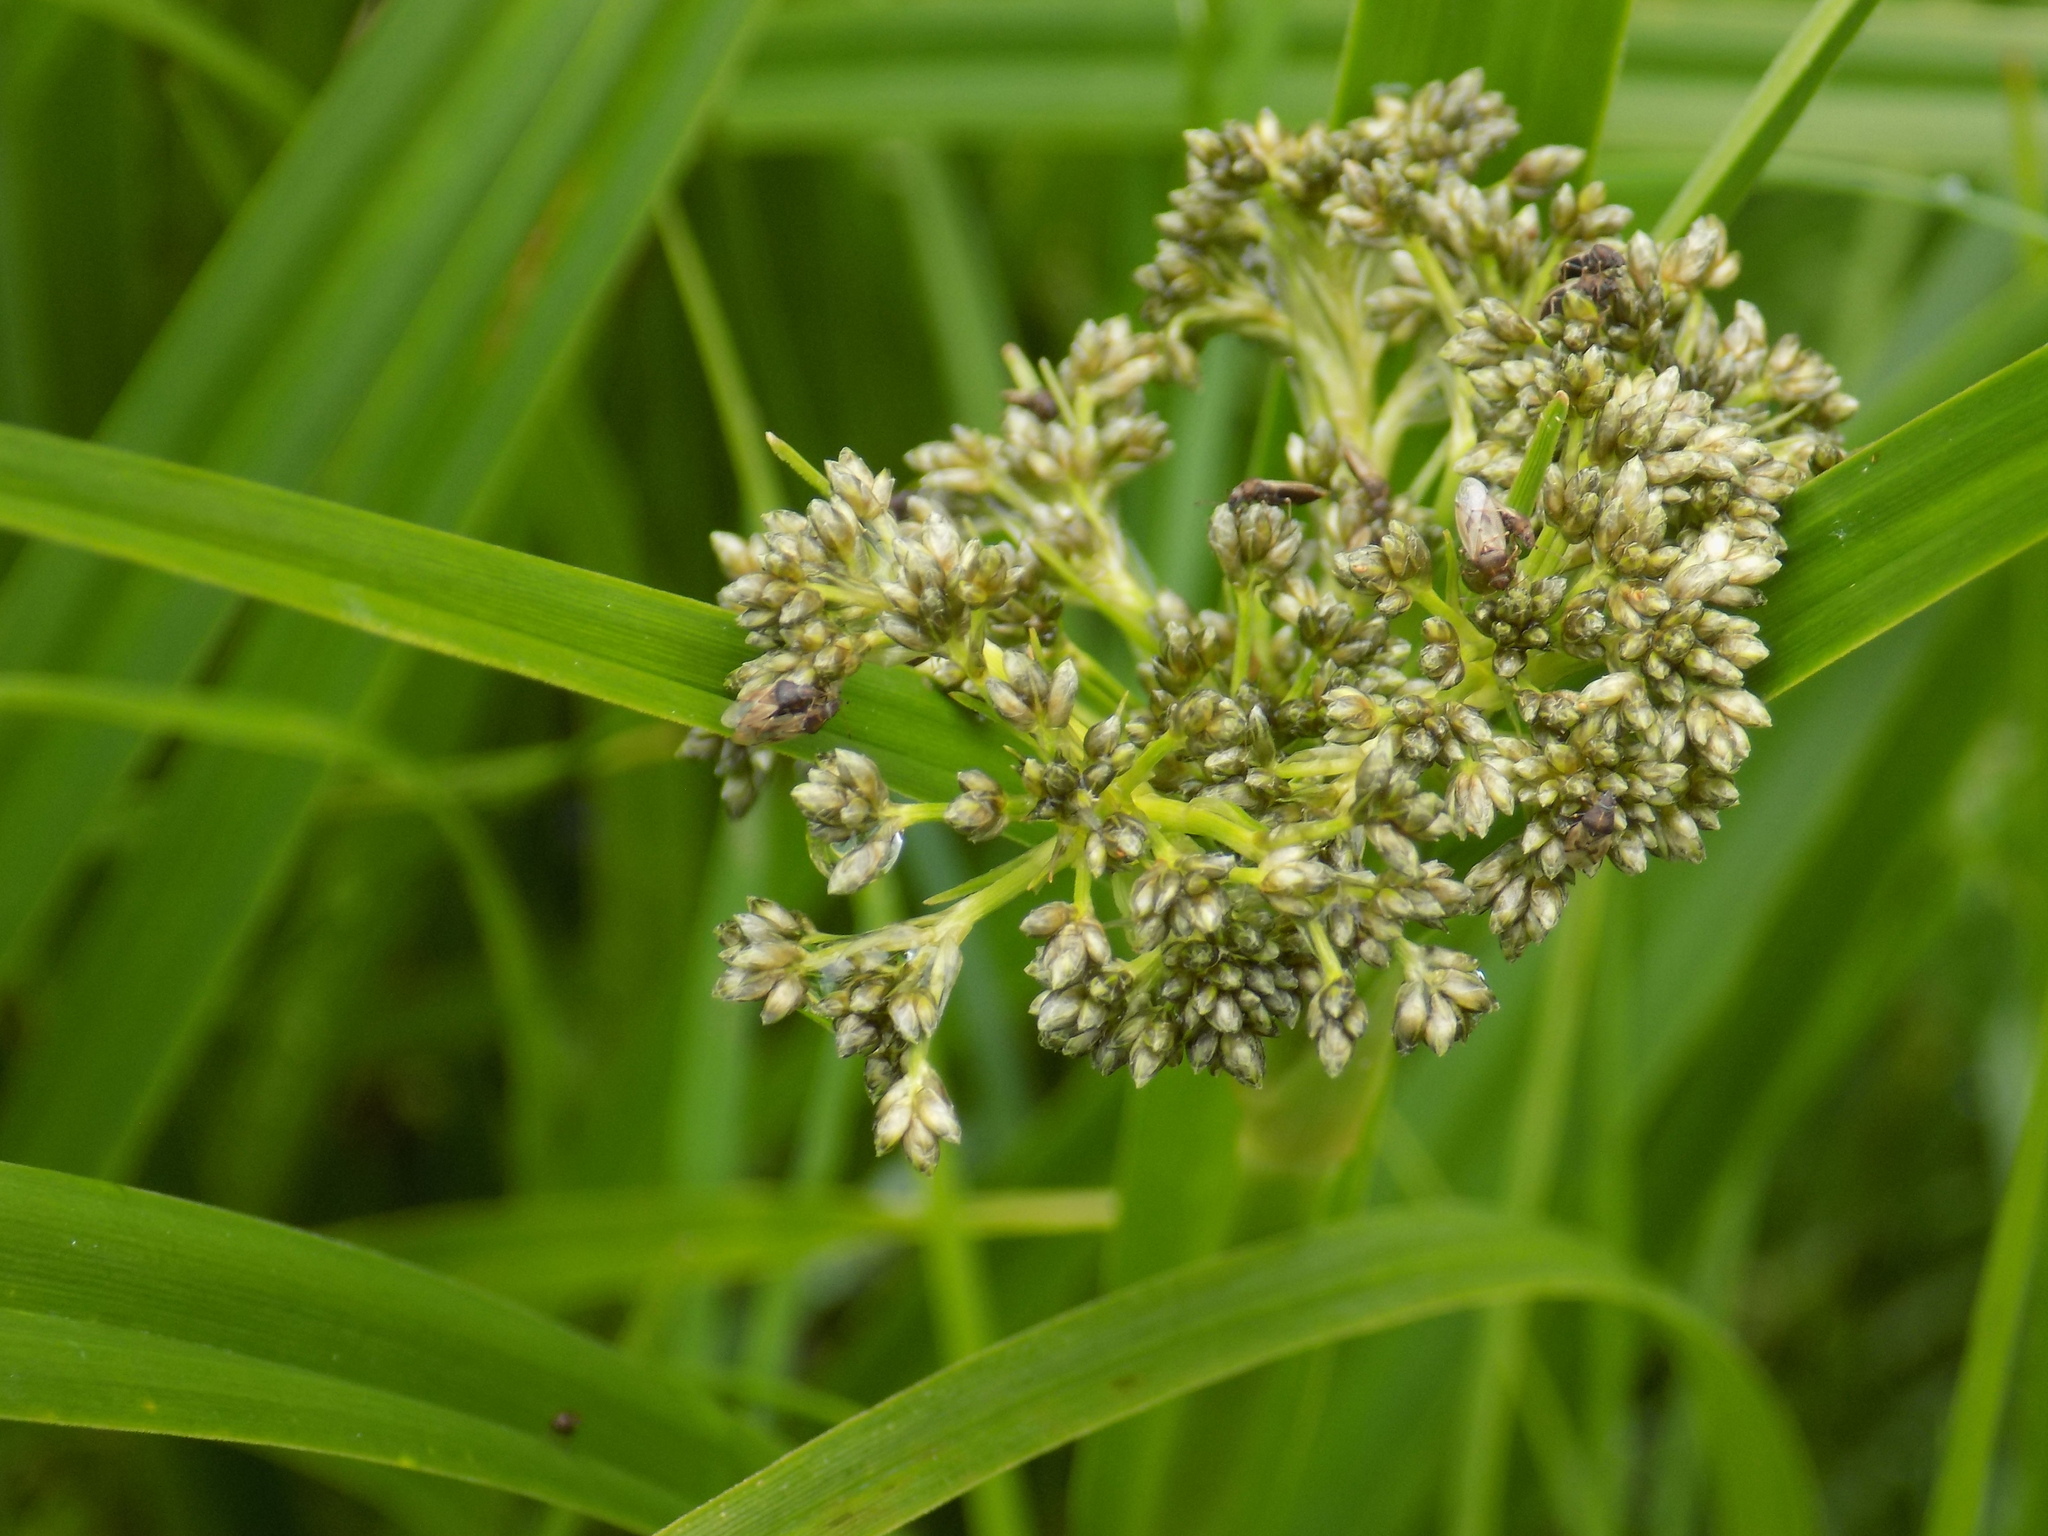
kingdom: Plantae
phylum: Tracheophyta
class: Liliopsida
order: Poales
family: Cyperaceae
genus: Scirpus
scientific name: Scirpus sylvaticus
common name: Wood club-rush
